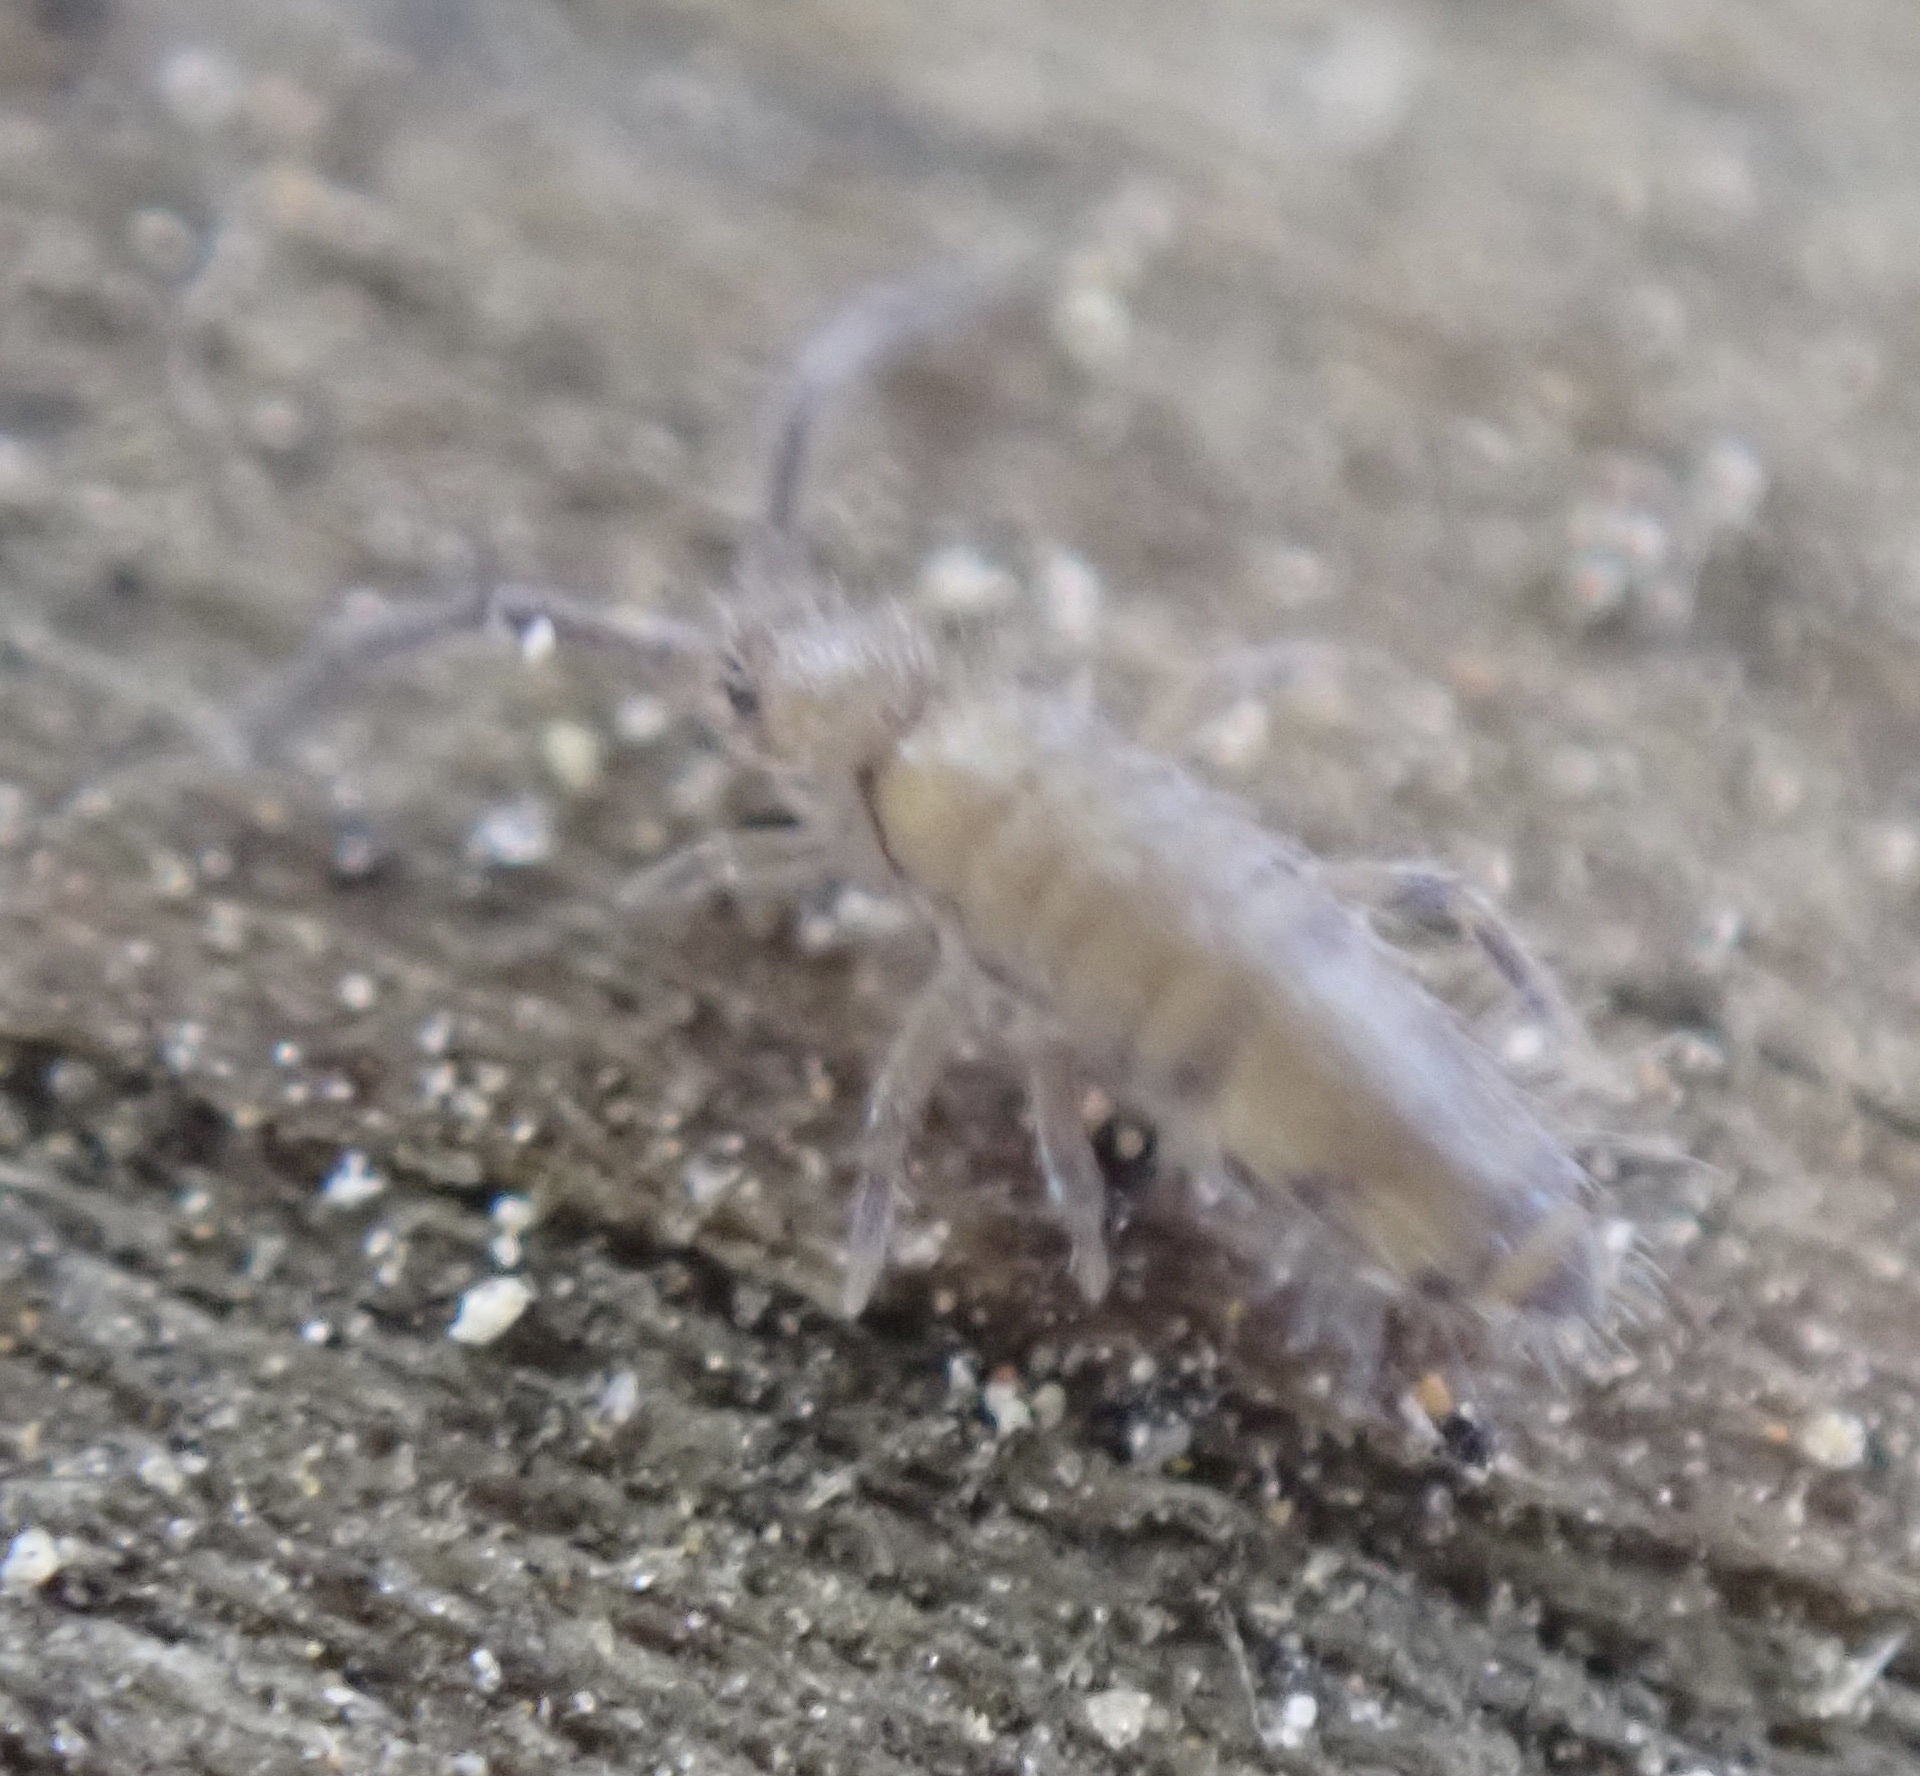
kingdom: Animalia
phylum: Arthropoda
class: Collembola
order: Entomobryomorpha
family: Entomobryidae
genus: Willowsia
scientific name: Willowsia nigromaculata
